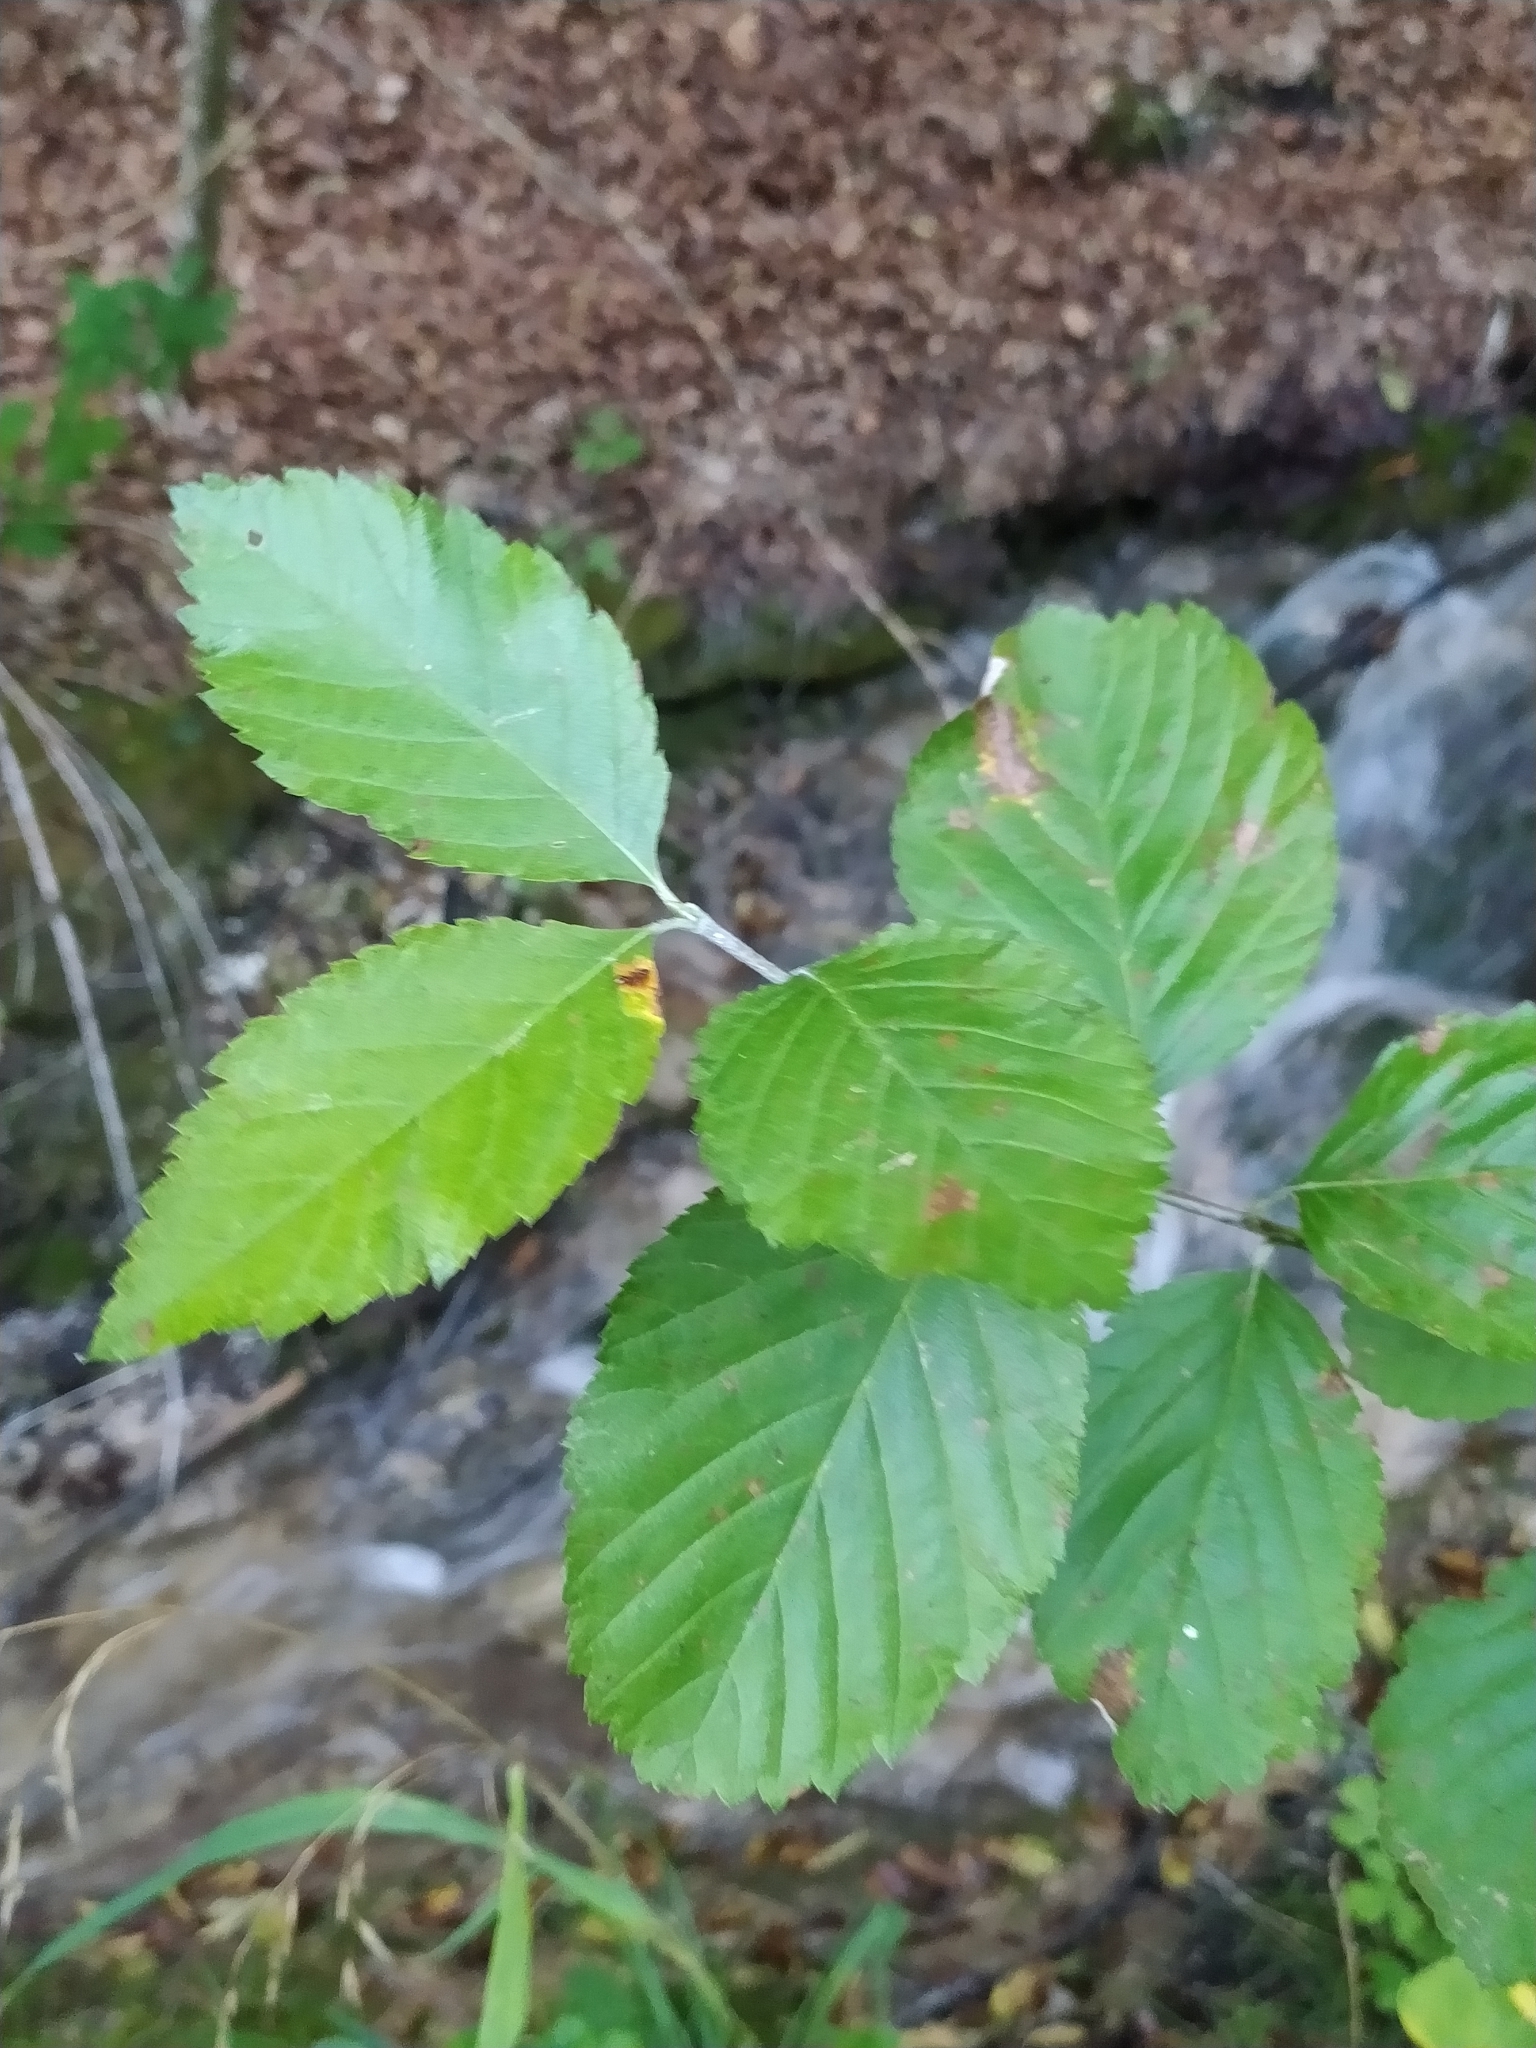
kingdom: Plantae
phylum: Tracheophyta
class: Magnoliopsida
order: Rosales
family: Rosaceae
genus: Aria
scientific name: Aria edulis
